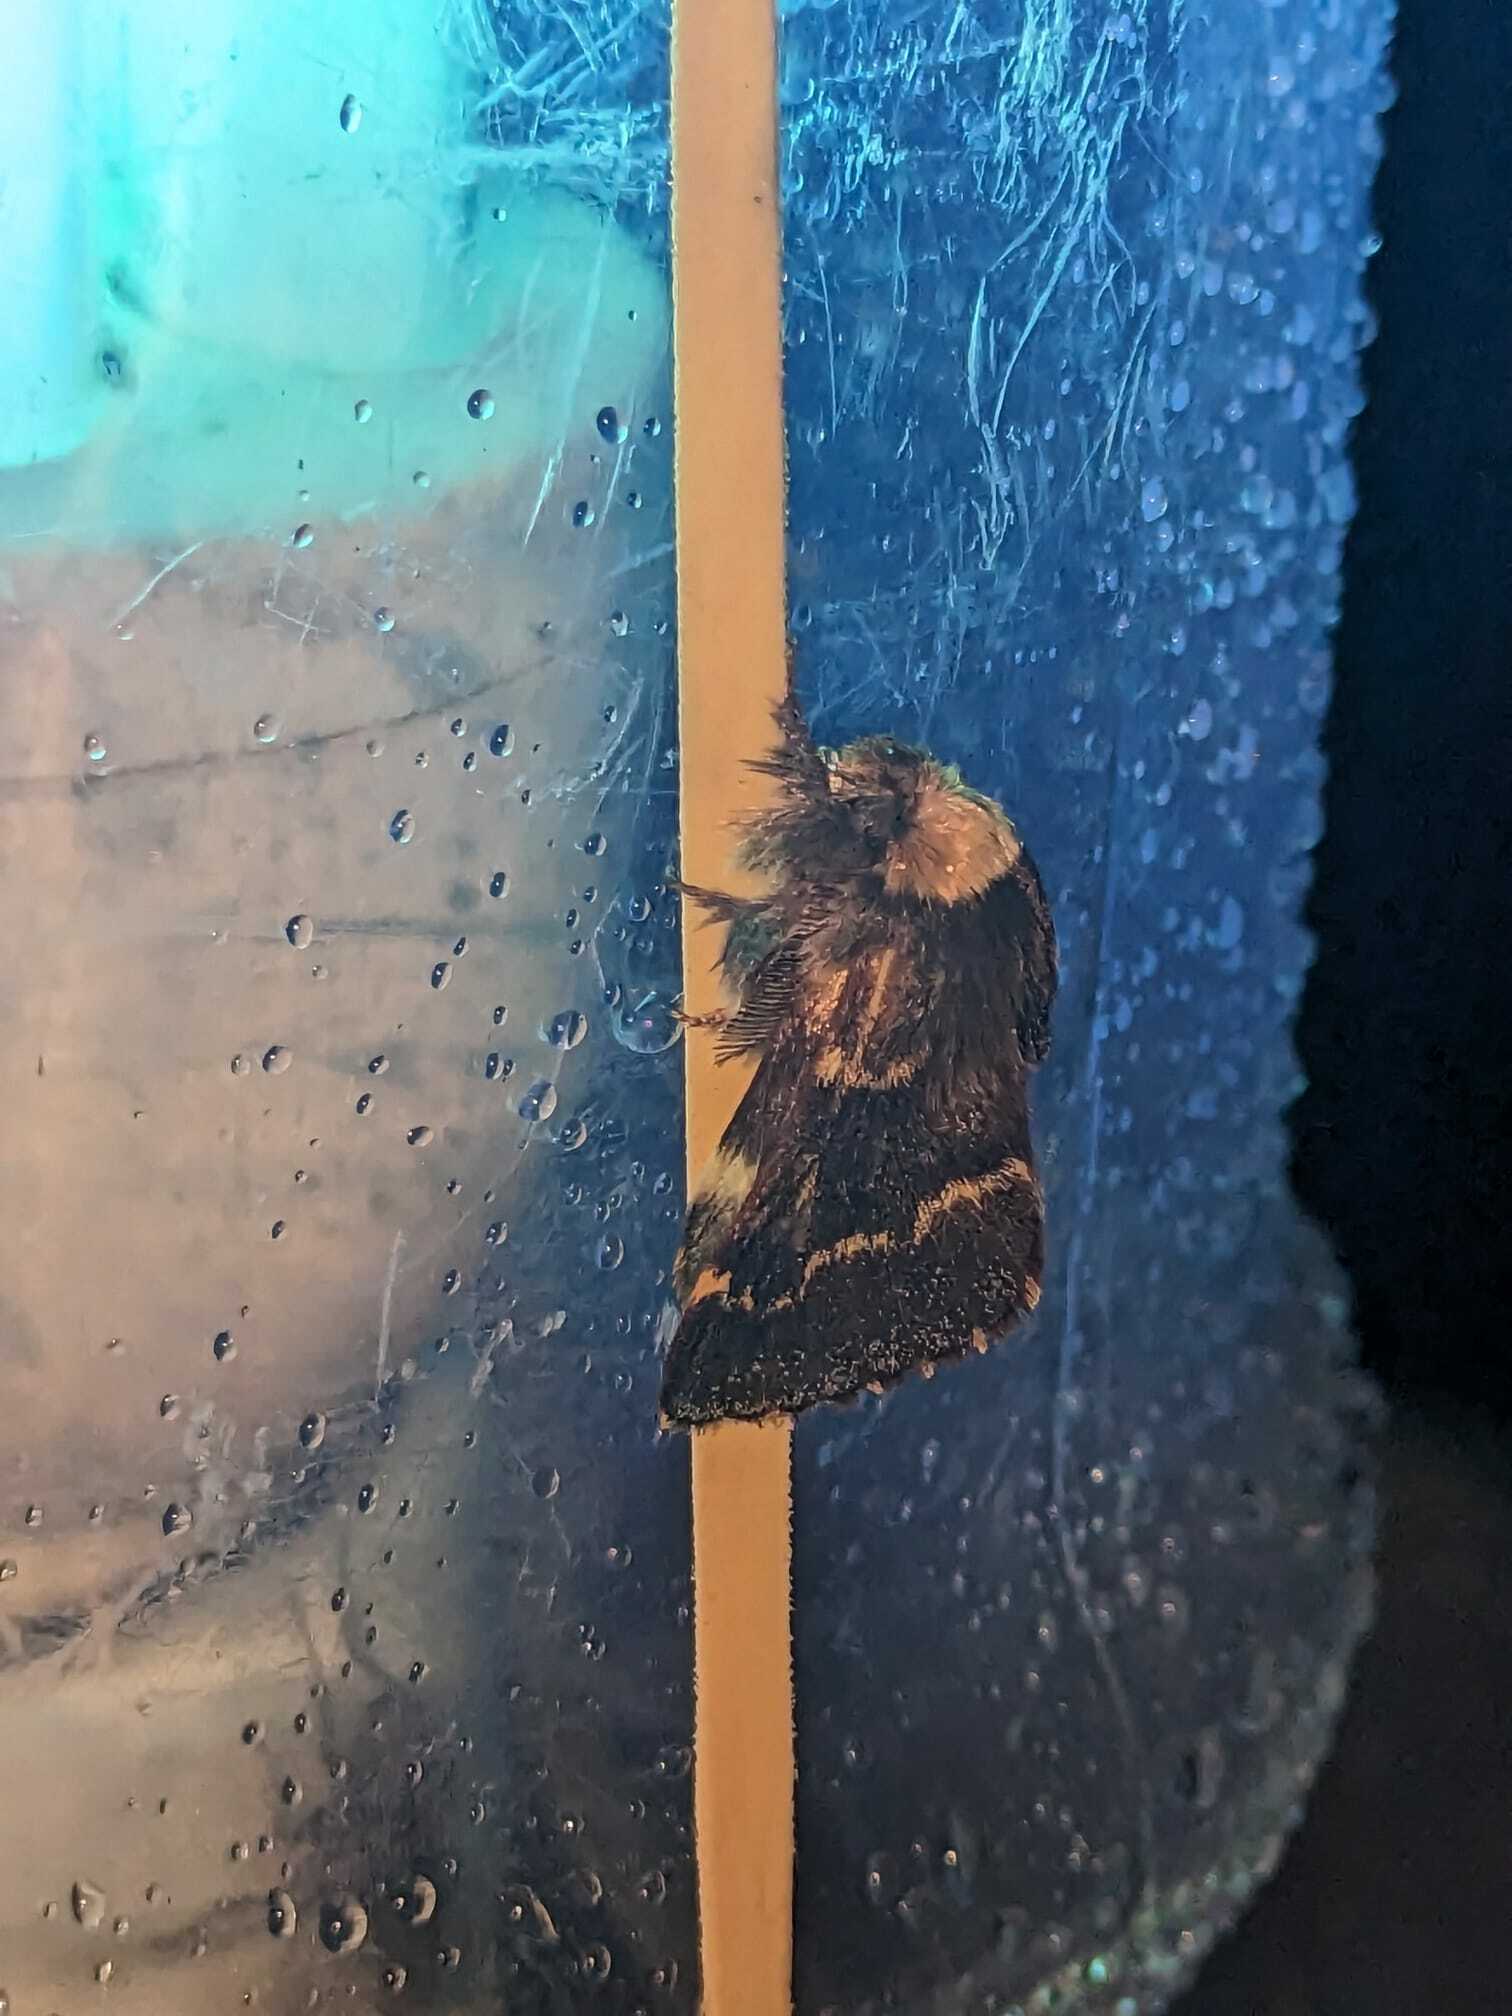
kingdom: Animalia
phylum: Arthropoda
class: Insecta
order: Lepidoptera
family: Lasiocampidae
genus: Poecilocampa
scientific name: Poecilocampa populi
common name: December moth
